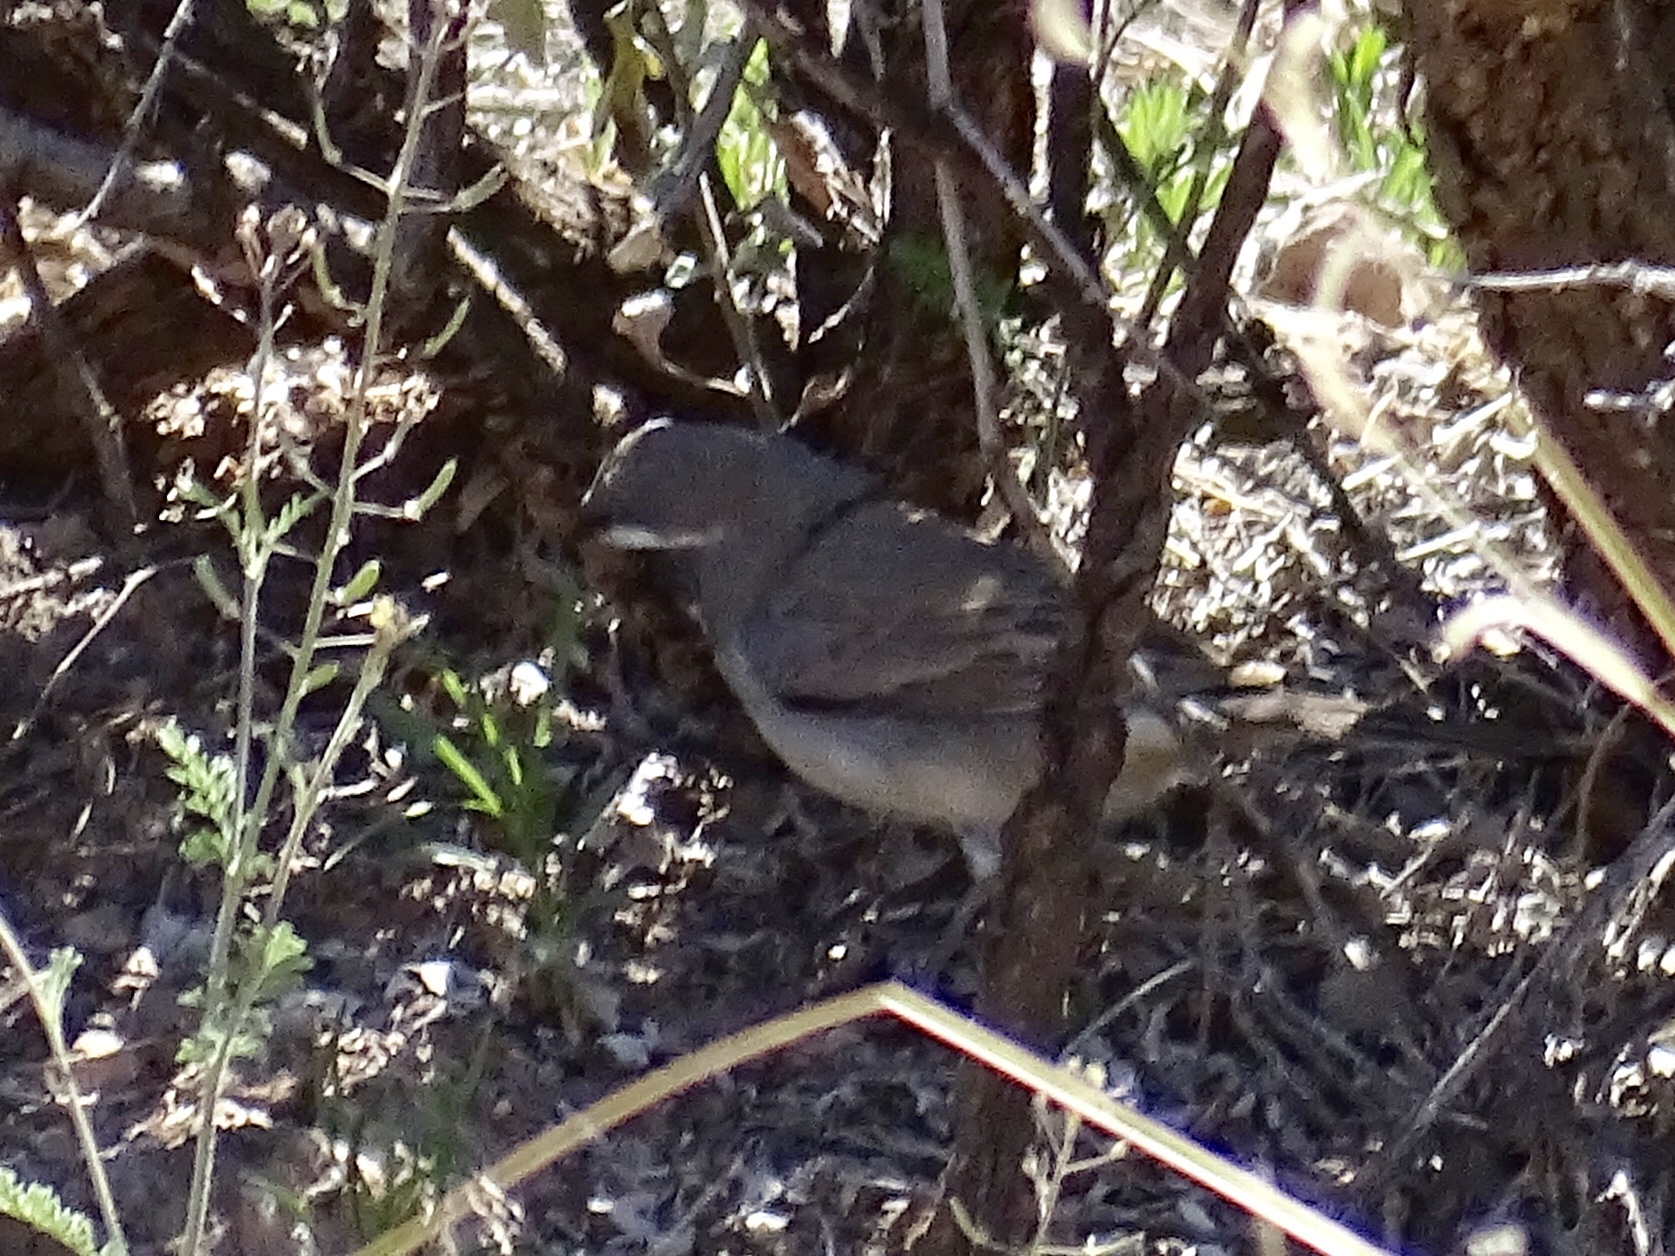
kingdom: Animalia
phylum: Chordata
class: Aves
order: Passeriformes
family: Passerellidae
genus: Amphispiza
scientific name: Amphispiza bilineata
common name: Black-throated sparrow
